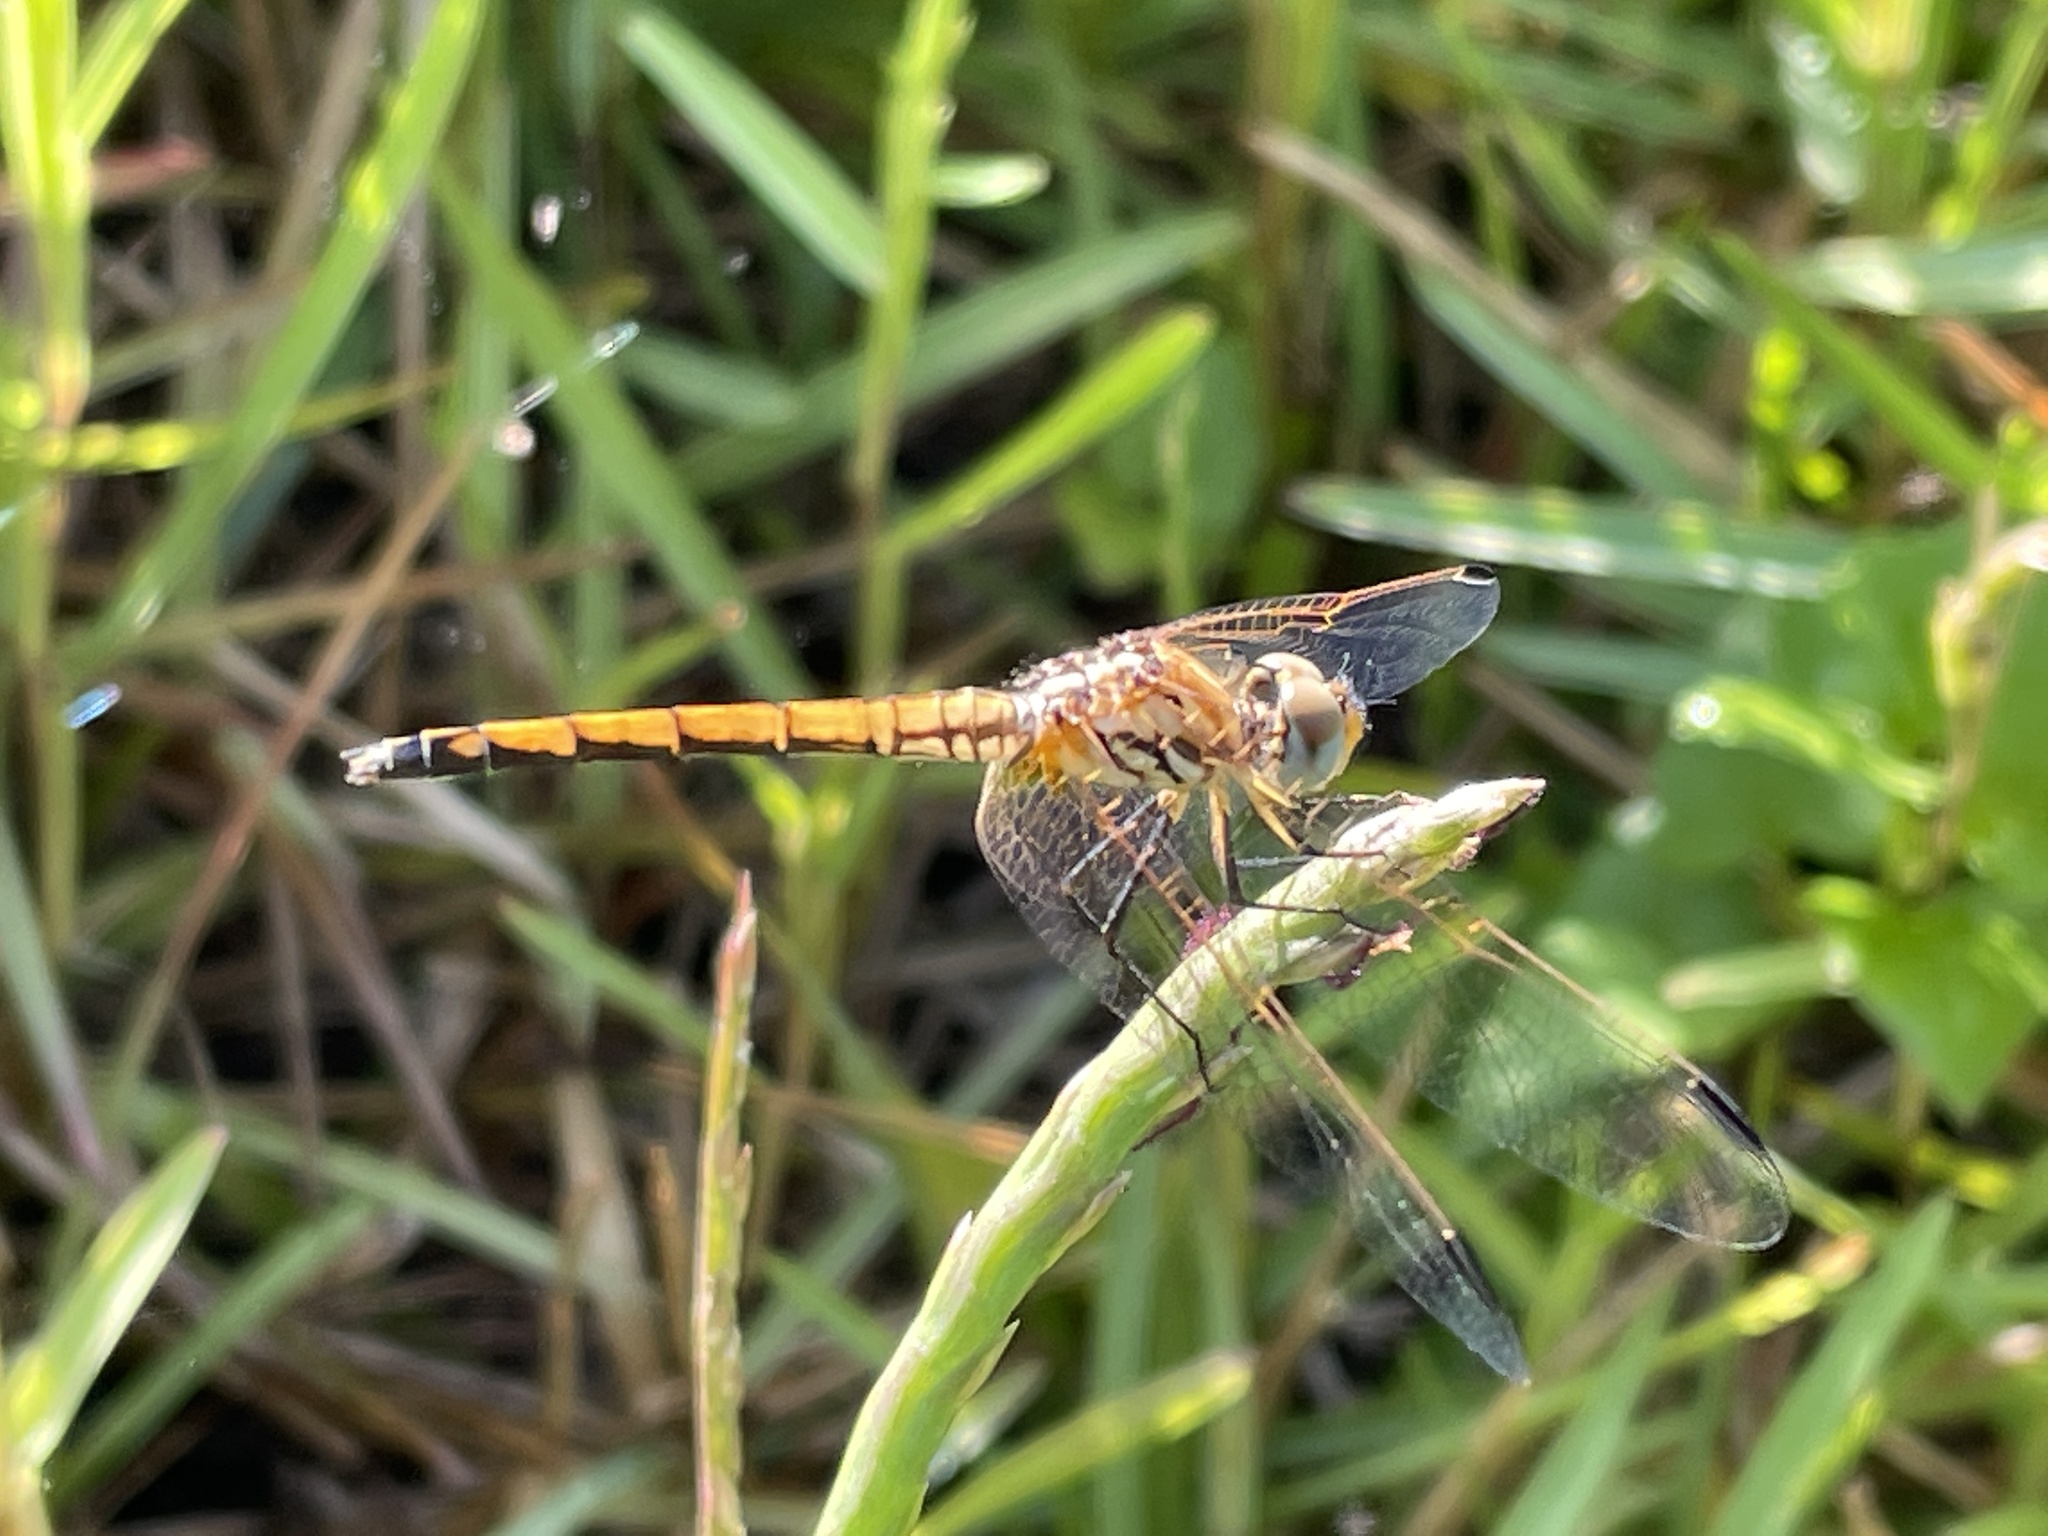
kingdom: Animalia
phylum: Arthropoda
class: Insecta
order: Odonata
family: Libellulidae
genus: Trithemis
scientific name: Trithemis arteriosa
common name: Red-veined dropwing
